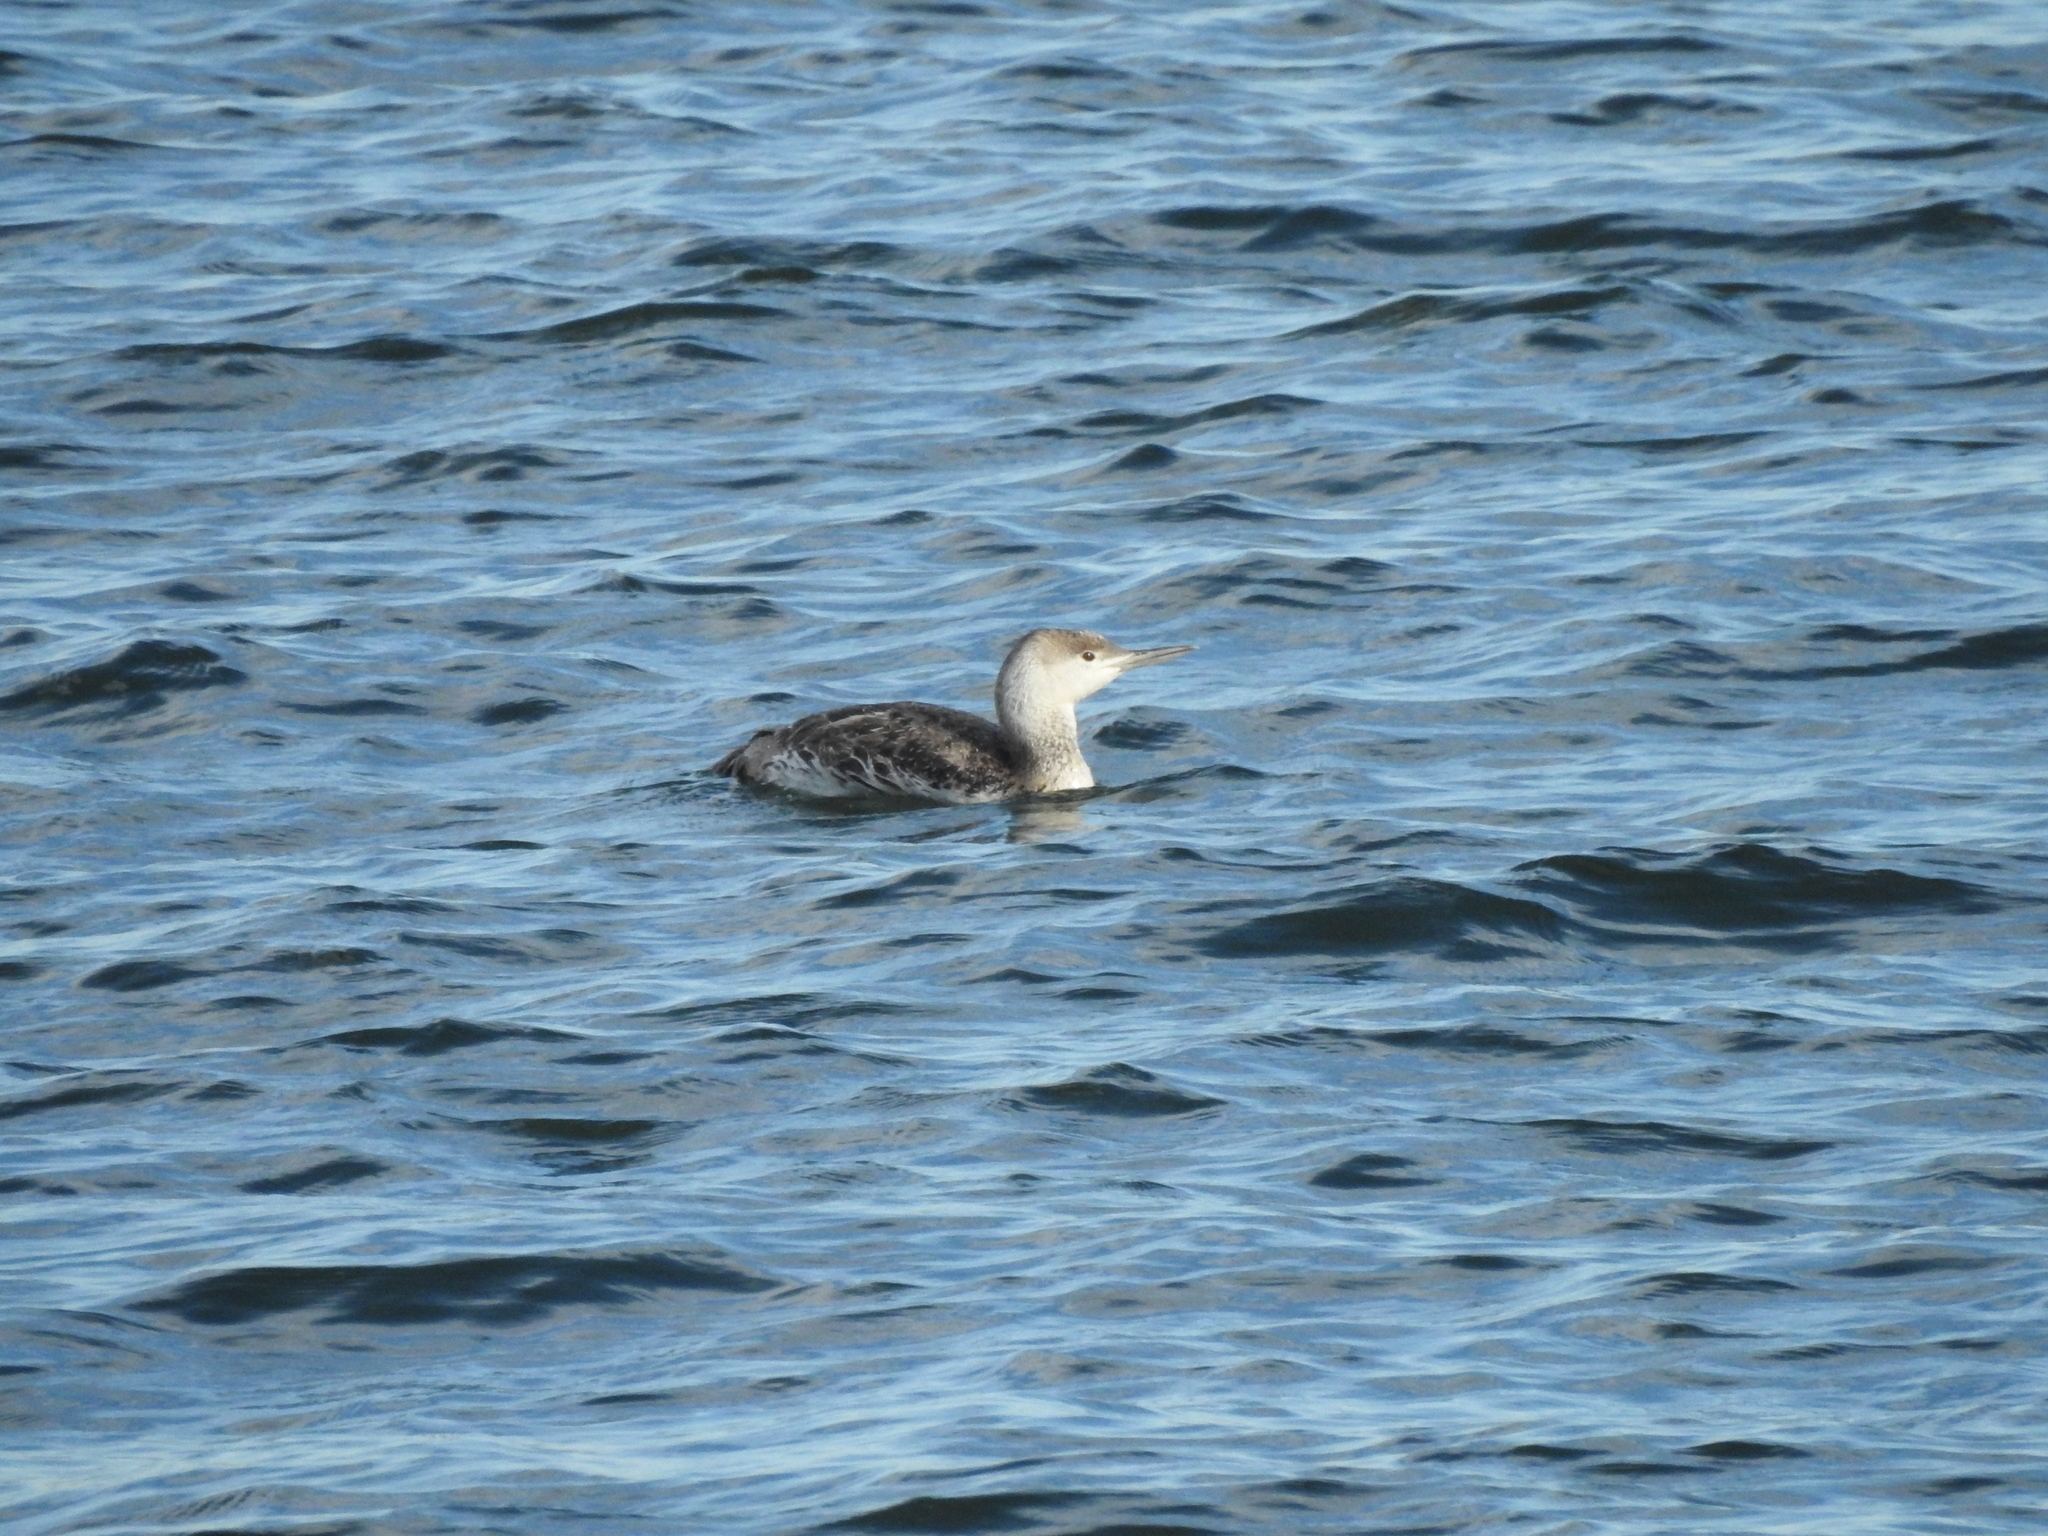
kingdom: Animalia
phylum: Chordata
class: Aves
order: Gaviiformes
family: Gaviidae
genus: Gavia
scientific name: Gavia stellata
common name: Red-throated loon
